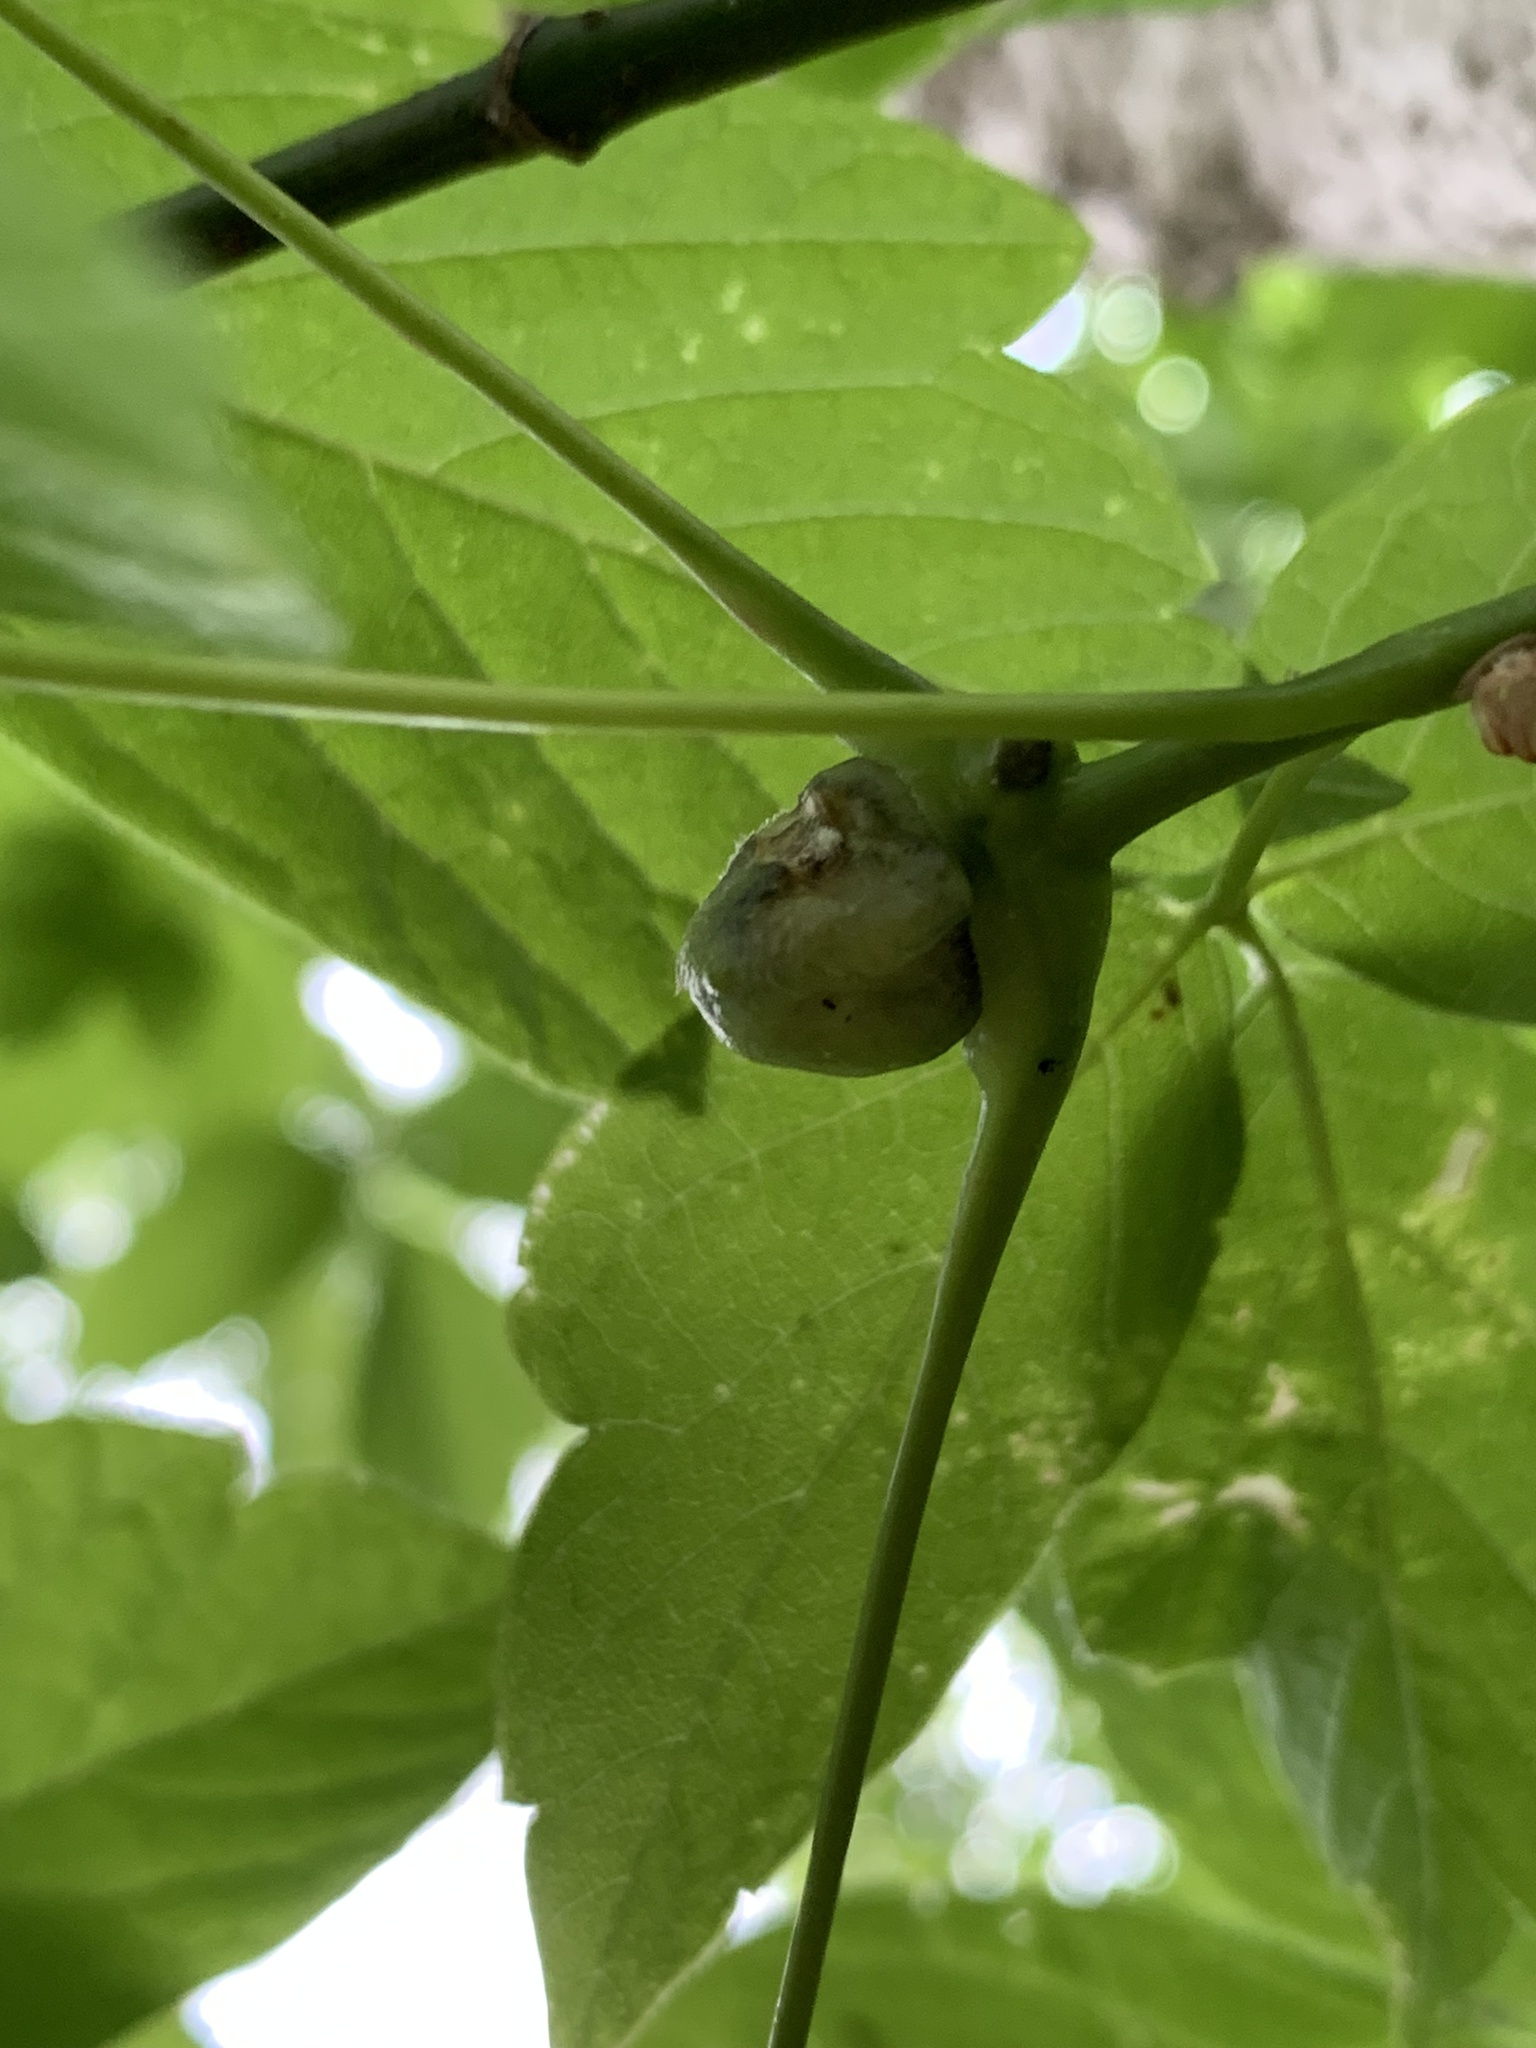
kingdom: Animalia
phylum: Arthropoda
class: Insecta
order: Diptera
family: Cecidomyiidae
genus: Contarinia
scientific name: Contarinia negundinis
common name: Boxelder budgall midge
